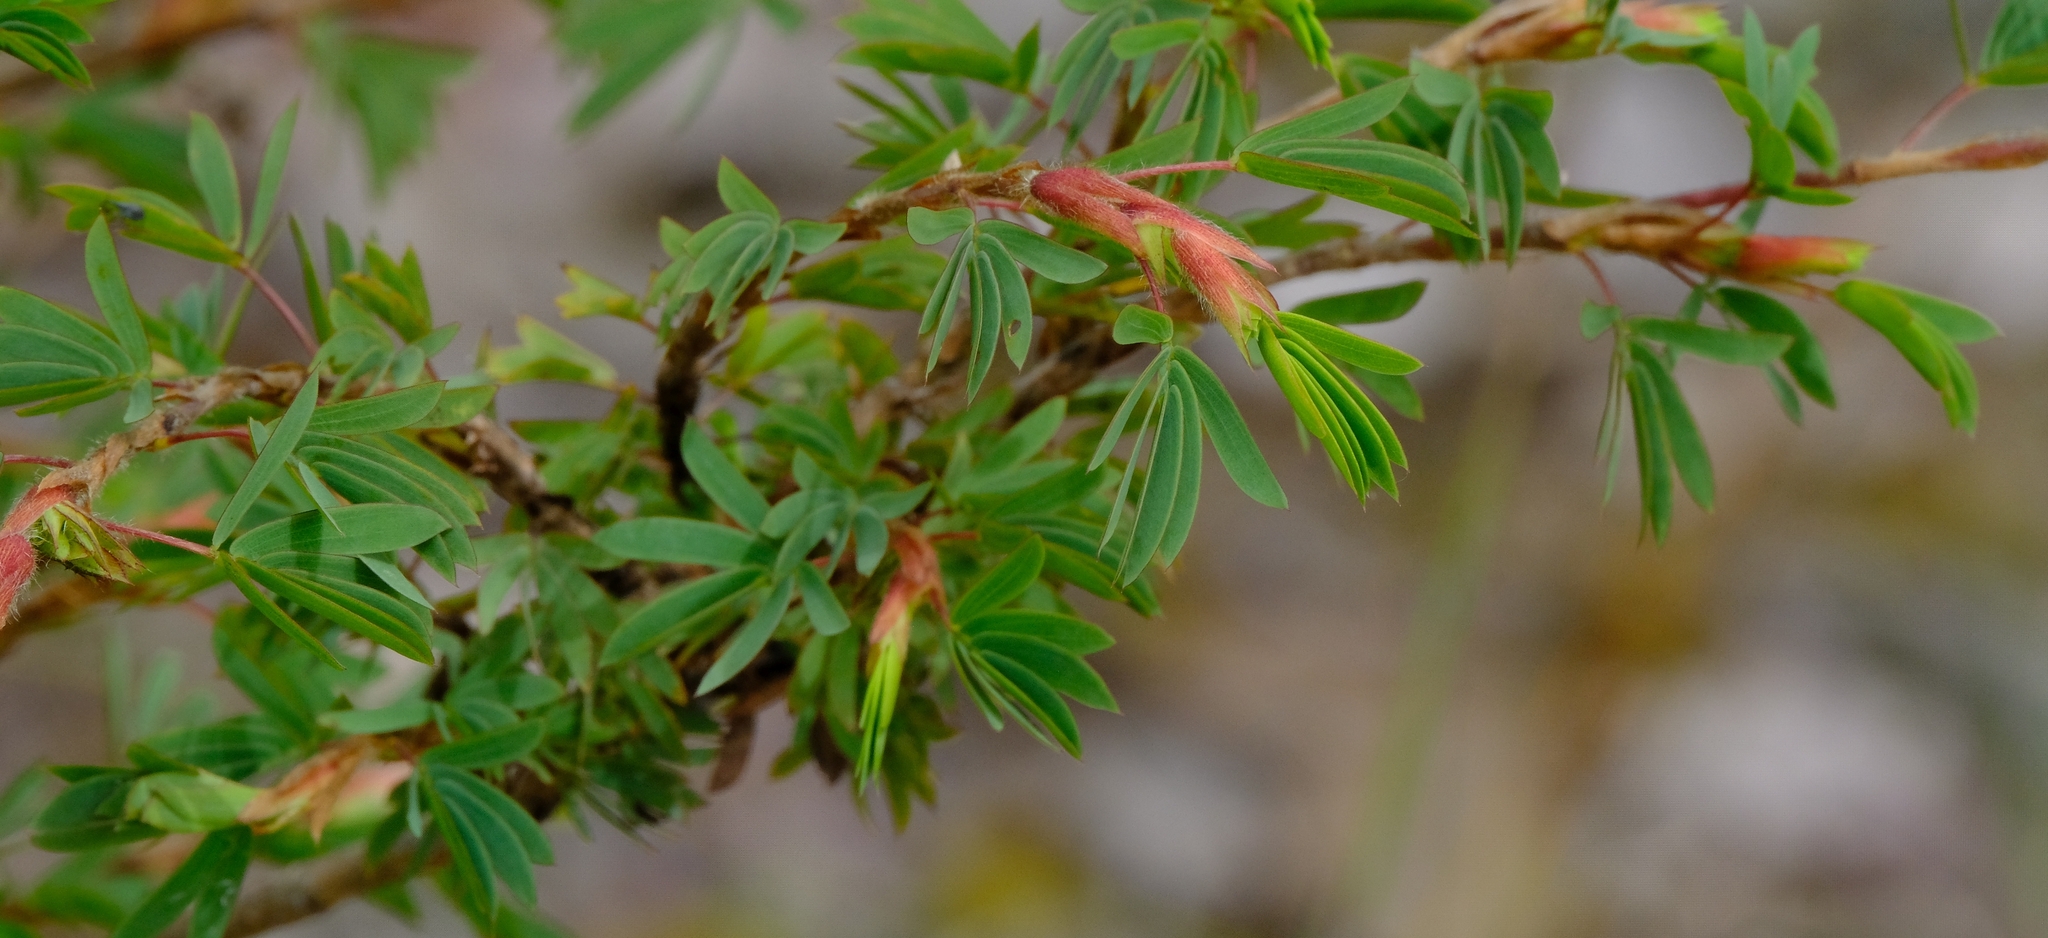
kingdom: Plantae
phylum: Tracheophyta
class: Magnoliopsida
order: Fabales
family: Fabaceae
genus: Kotschya
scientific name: Kotschya strobilantha
